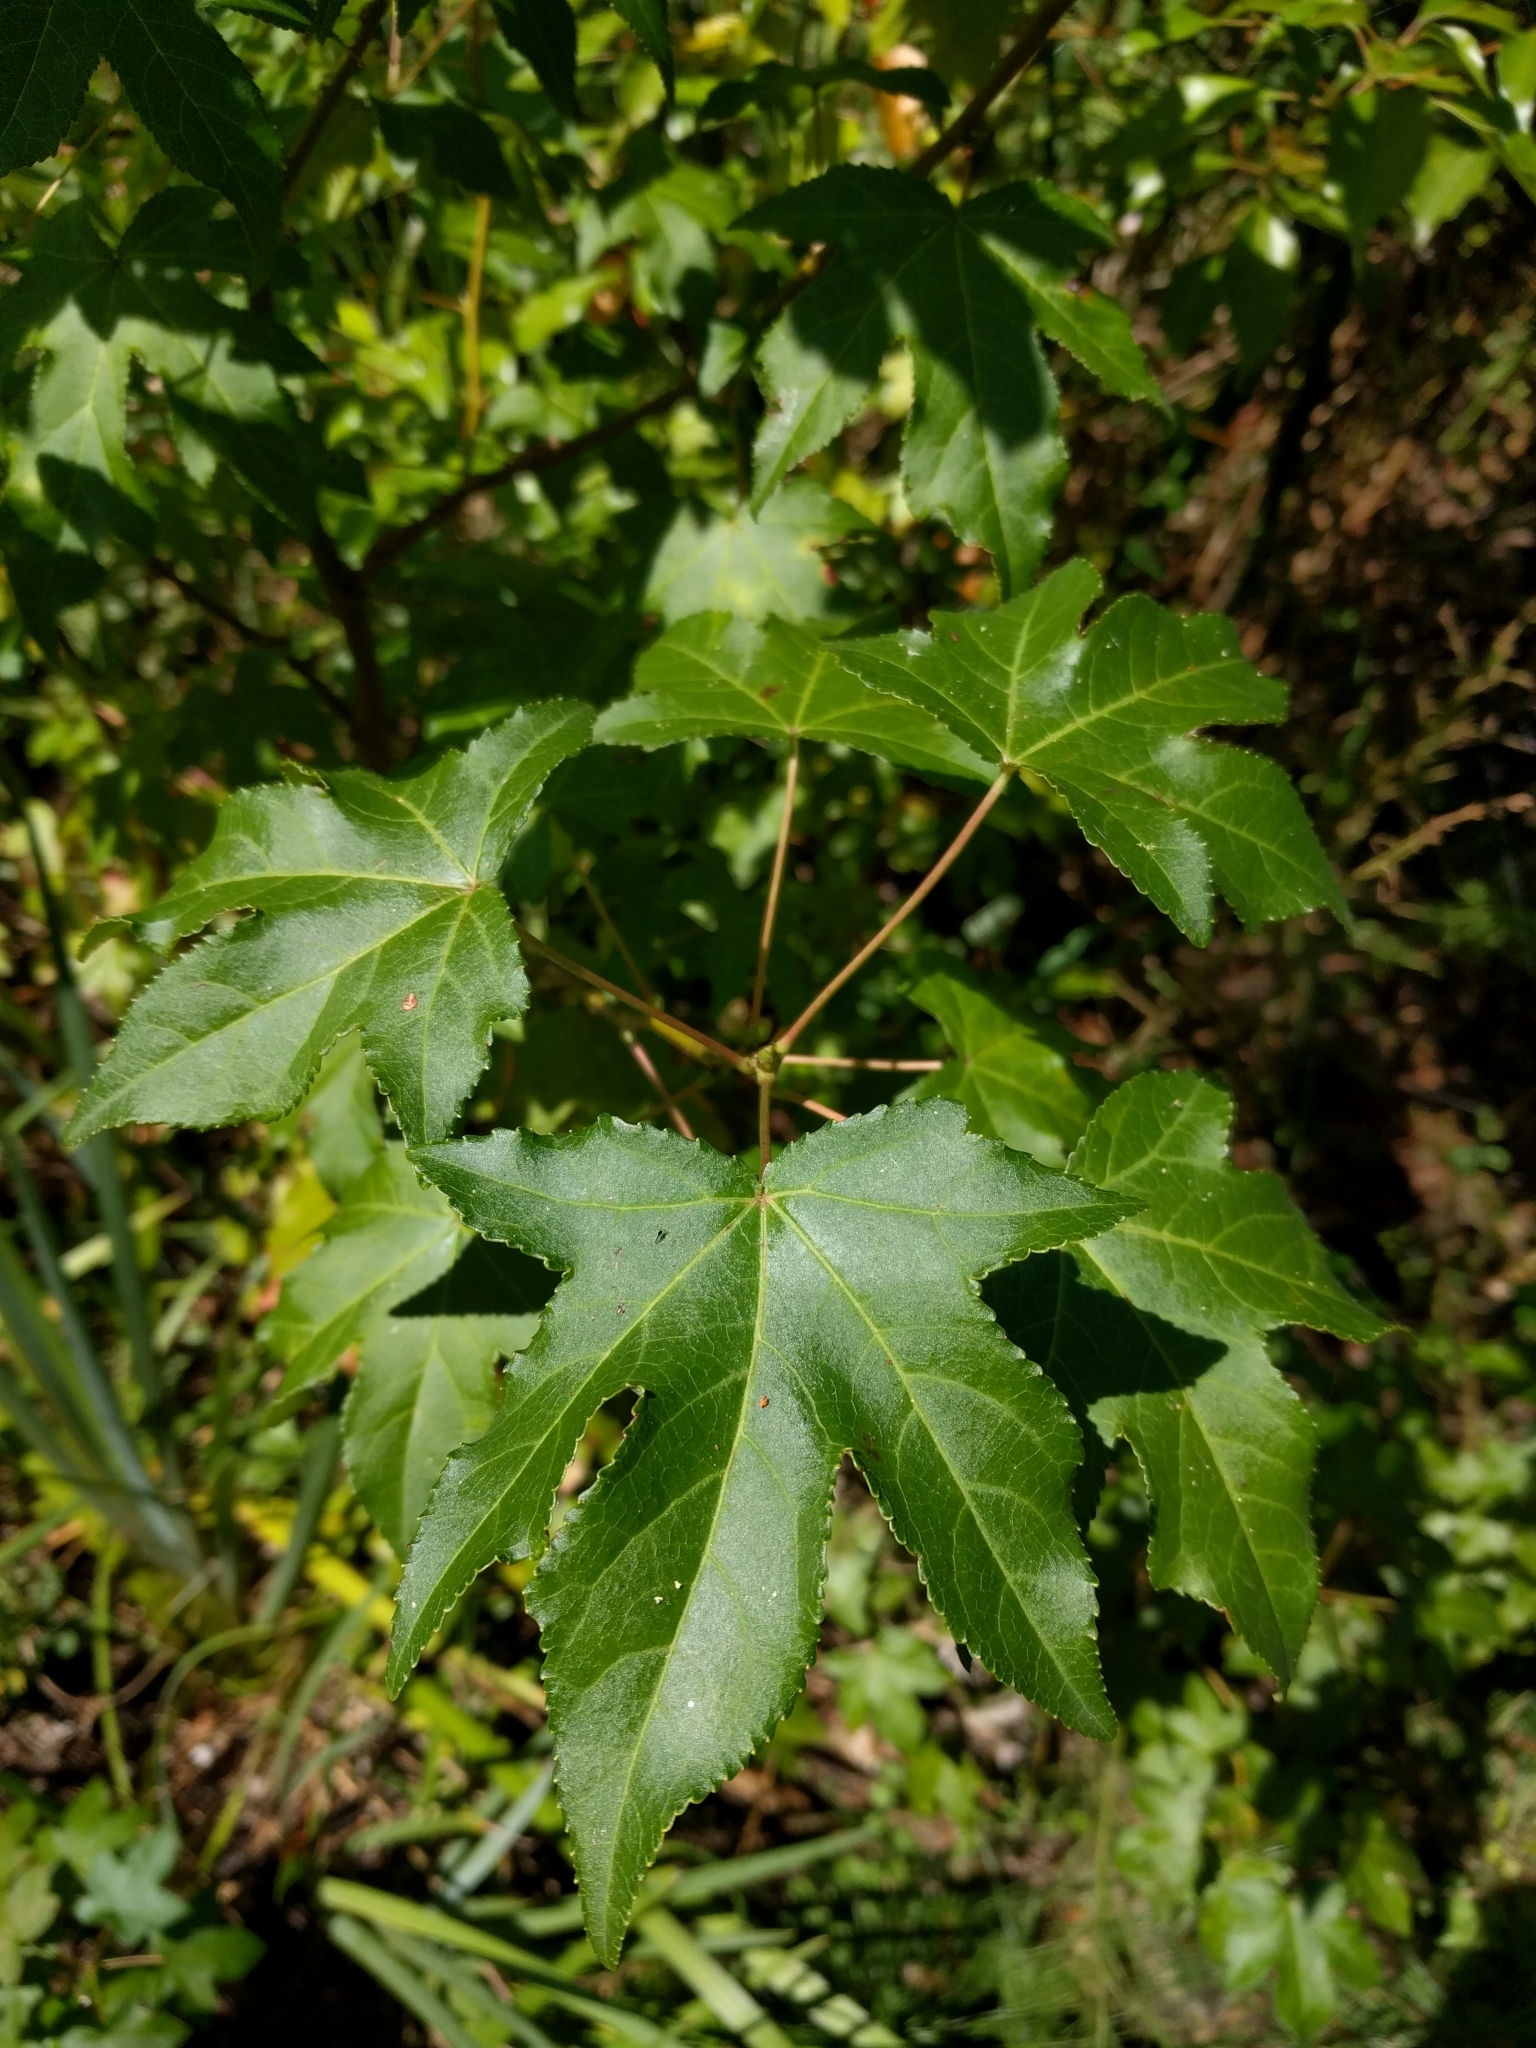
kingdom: Plantae
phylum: Tracheophyta
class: Magnoliopsida
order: Saxifragales
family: Altingiaceae
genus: Liquidambar
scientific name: Liquidambar styraciflua
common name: Sweet gum
